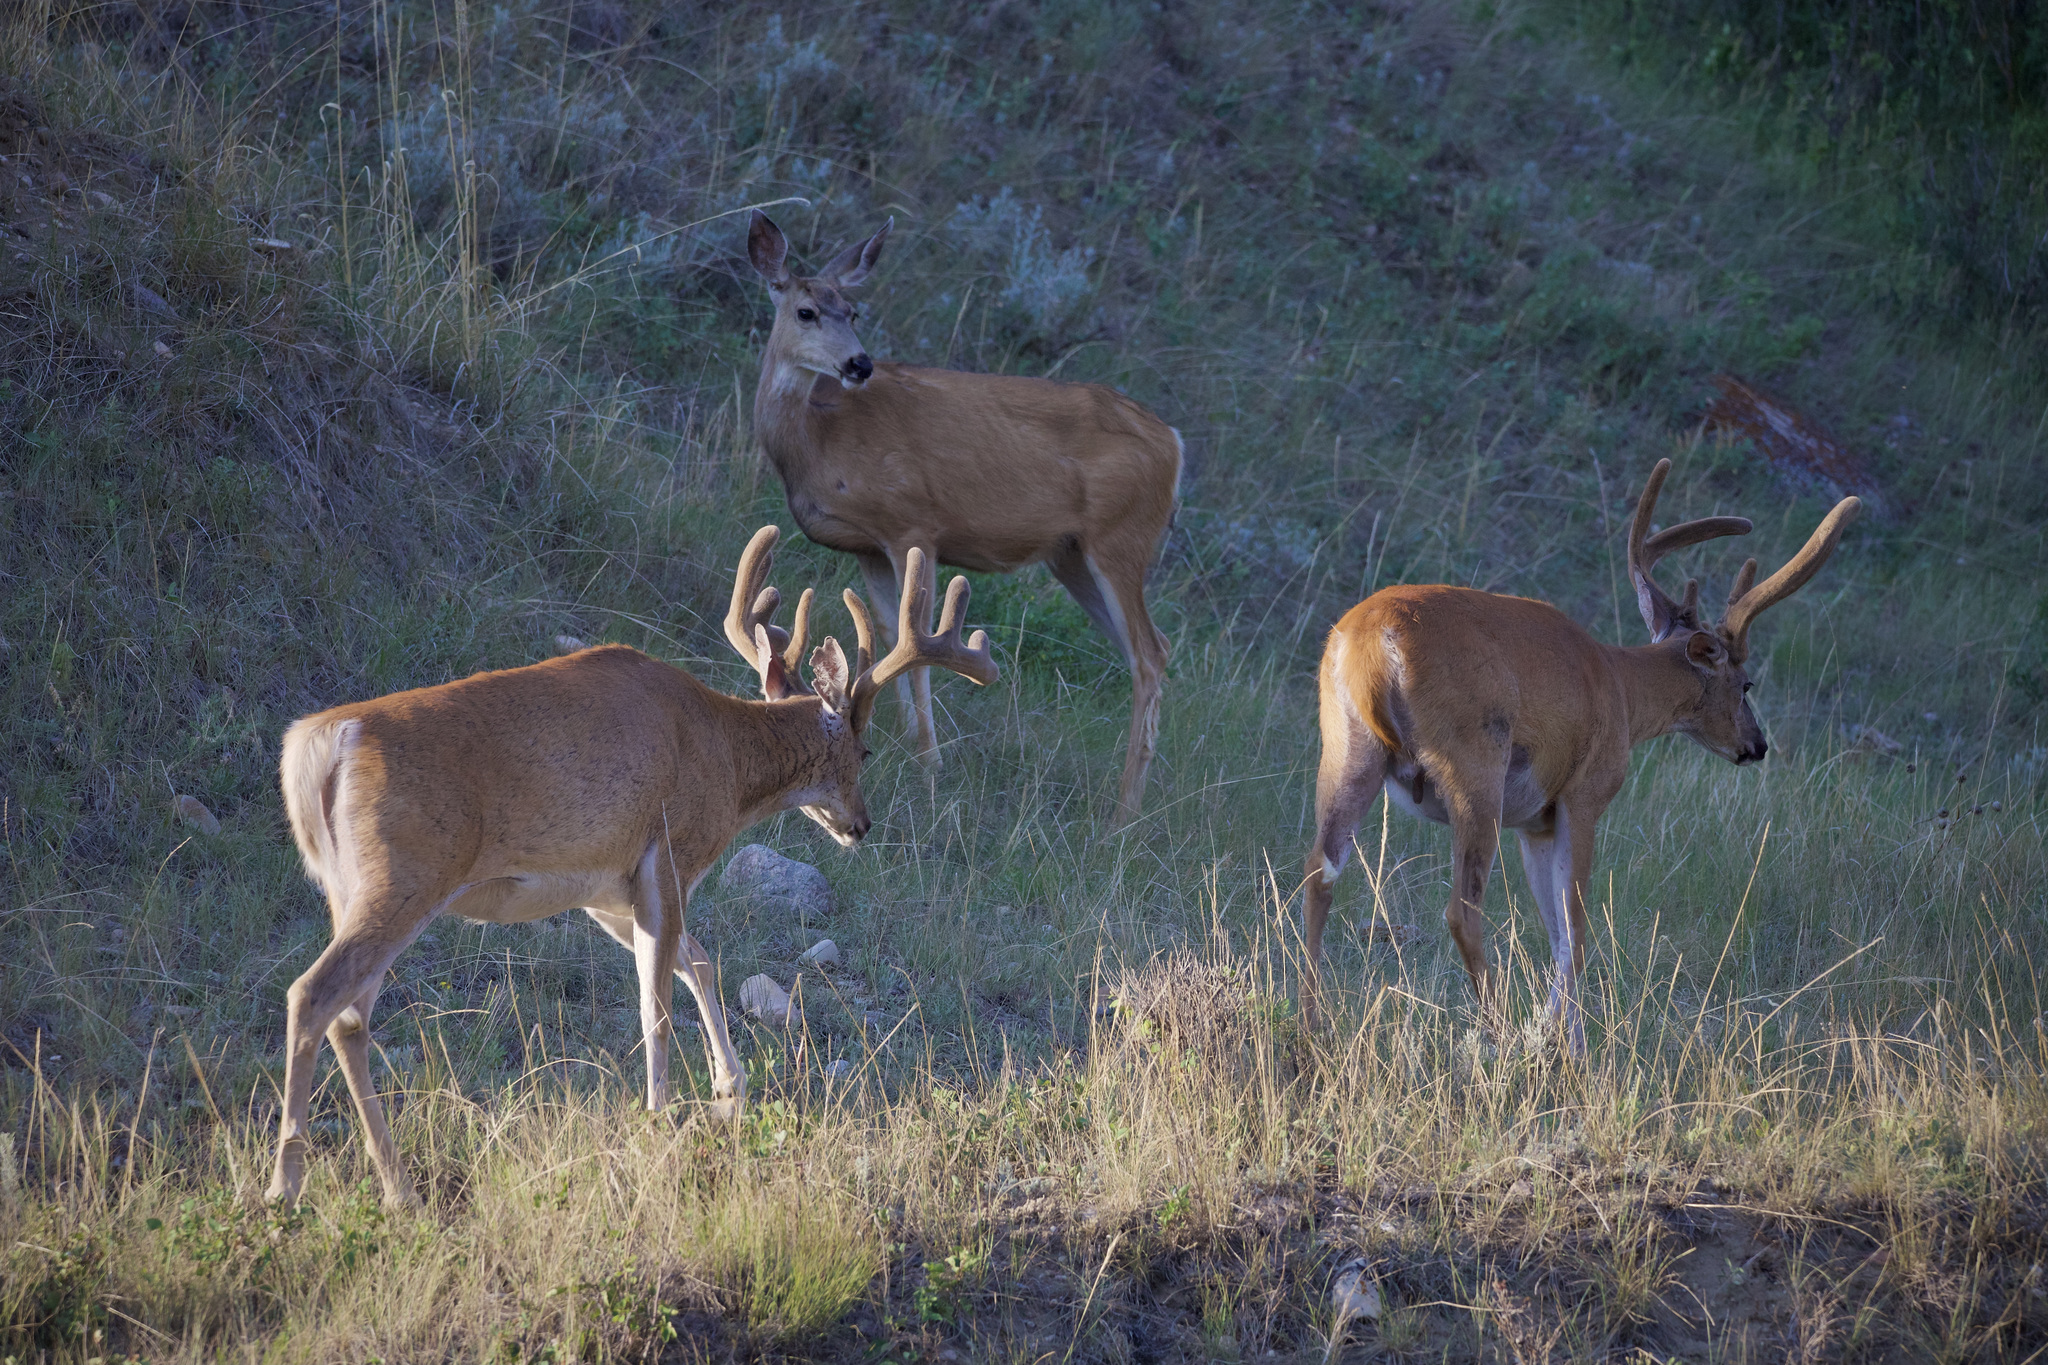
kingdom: Animalia
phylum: Chordata
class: Mammalia
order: Artiodactyla
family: Cervidae
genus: Odocoileus
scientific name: Odocoileus virginianus
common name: White-tailed deer
